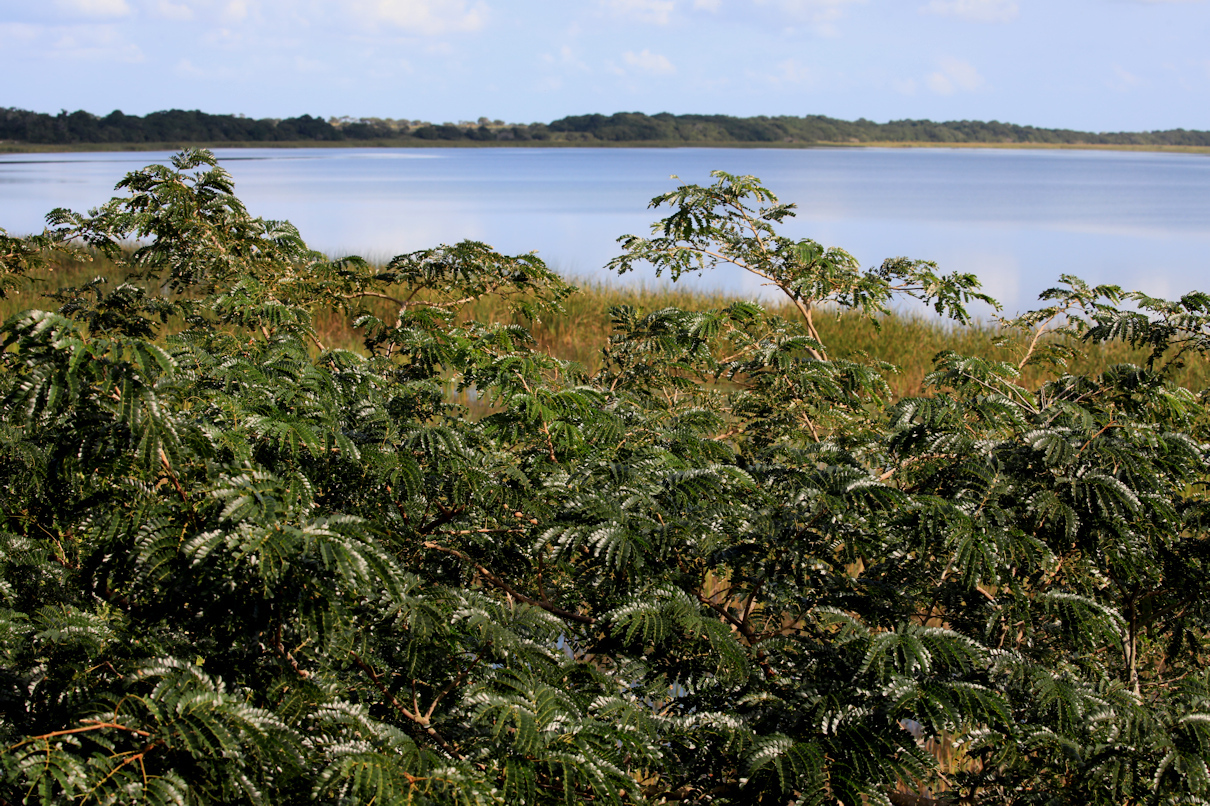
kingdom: Plantae
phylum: Tracheophyta
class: Magnoliopsida
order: Fabales
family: Fabaceae
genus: Albizia
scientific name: Albizia adianthifolia
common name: West african albizia
